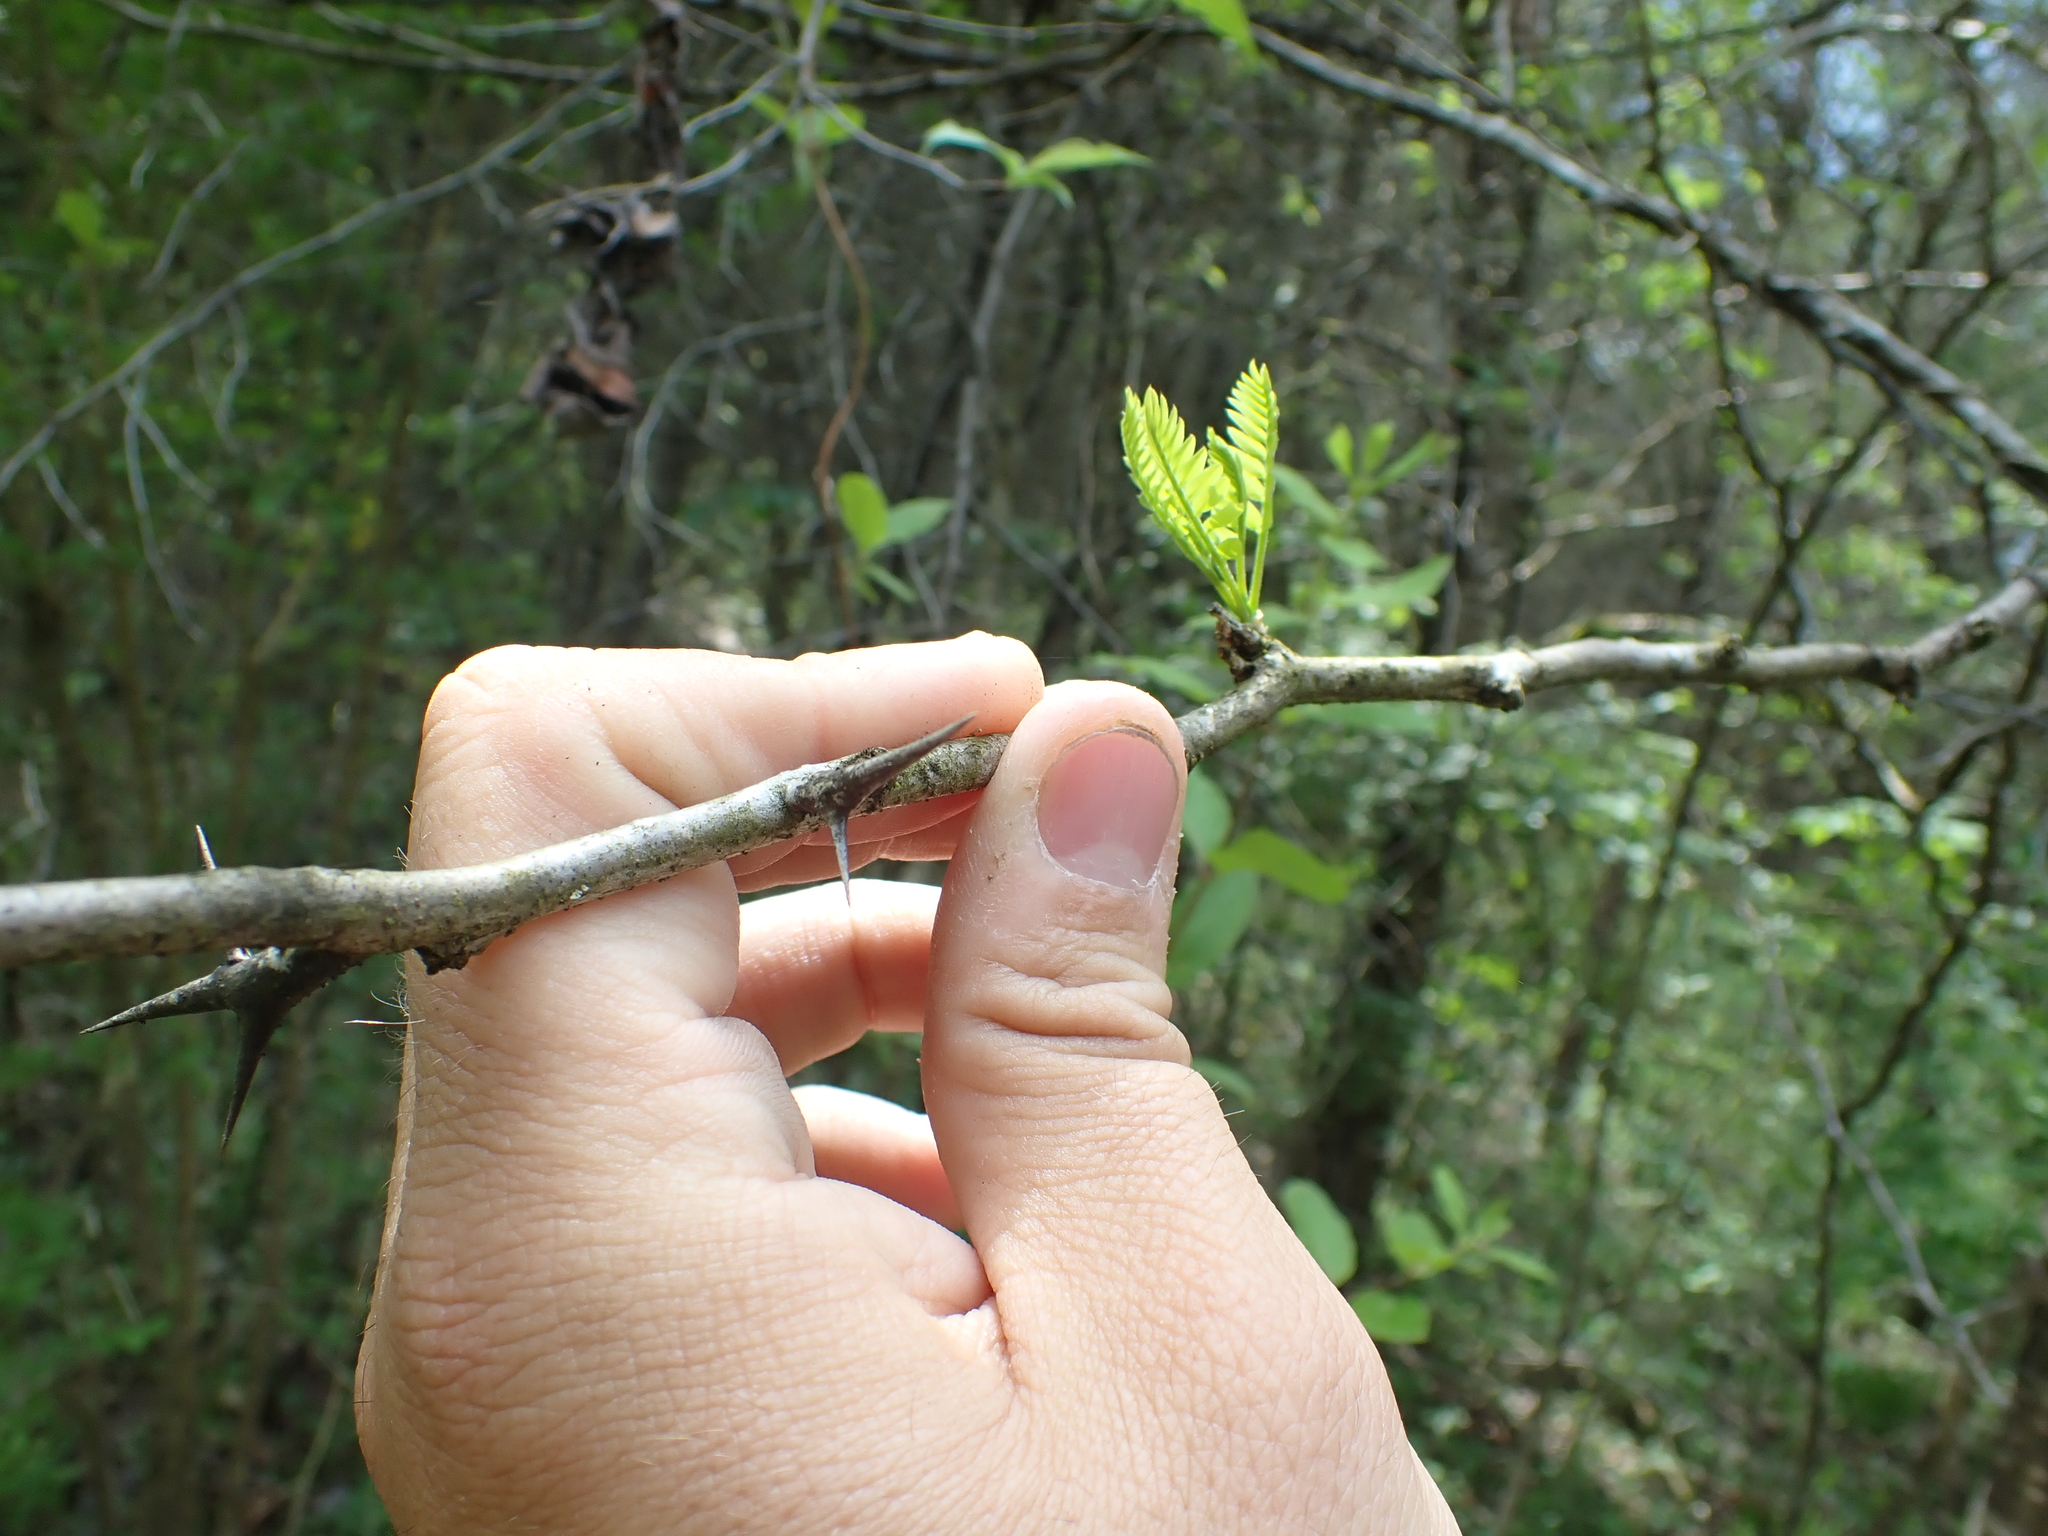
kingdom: Plantae
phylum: Tracheophyta
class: Magnoliopsida
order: Fabales
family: Fabaceae
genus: Gleditsia
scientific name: Gleditsia triacanthos
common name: Common honeylocust
